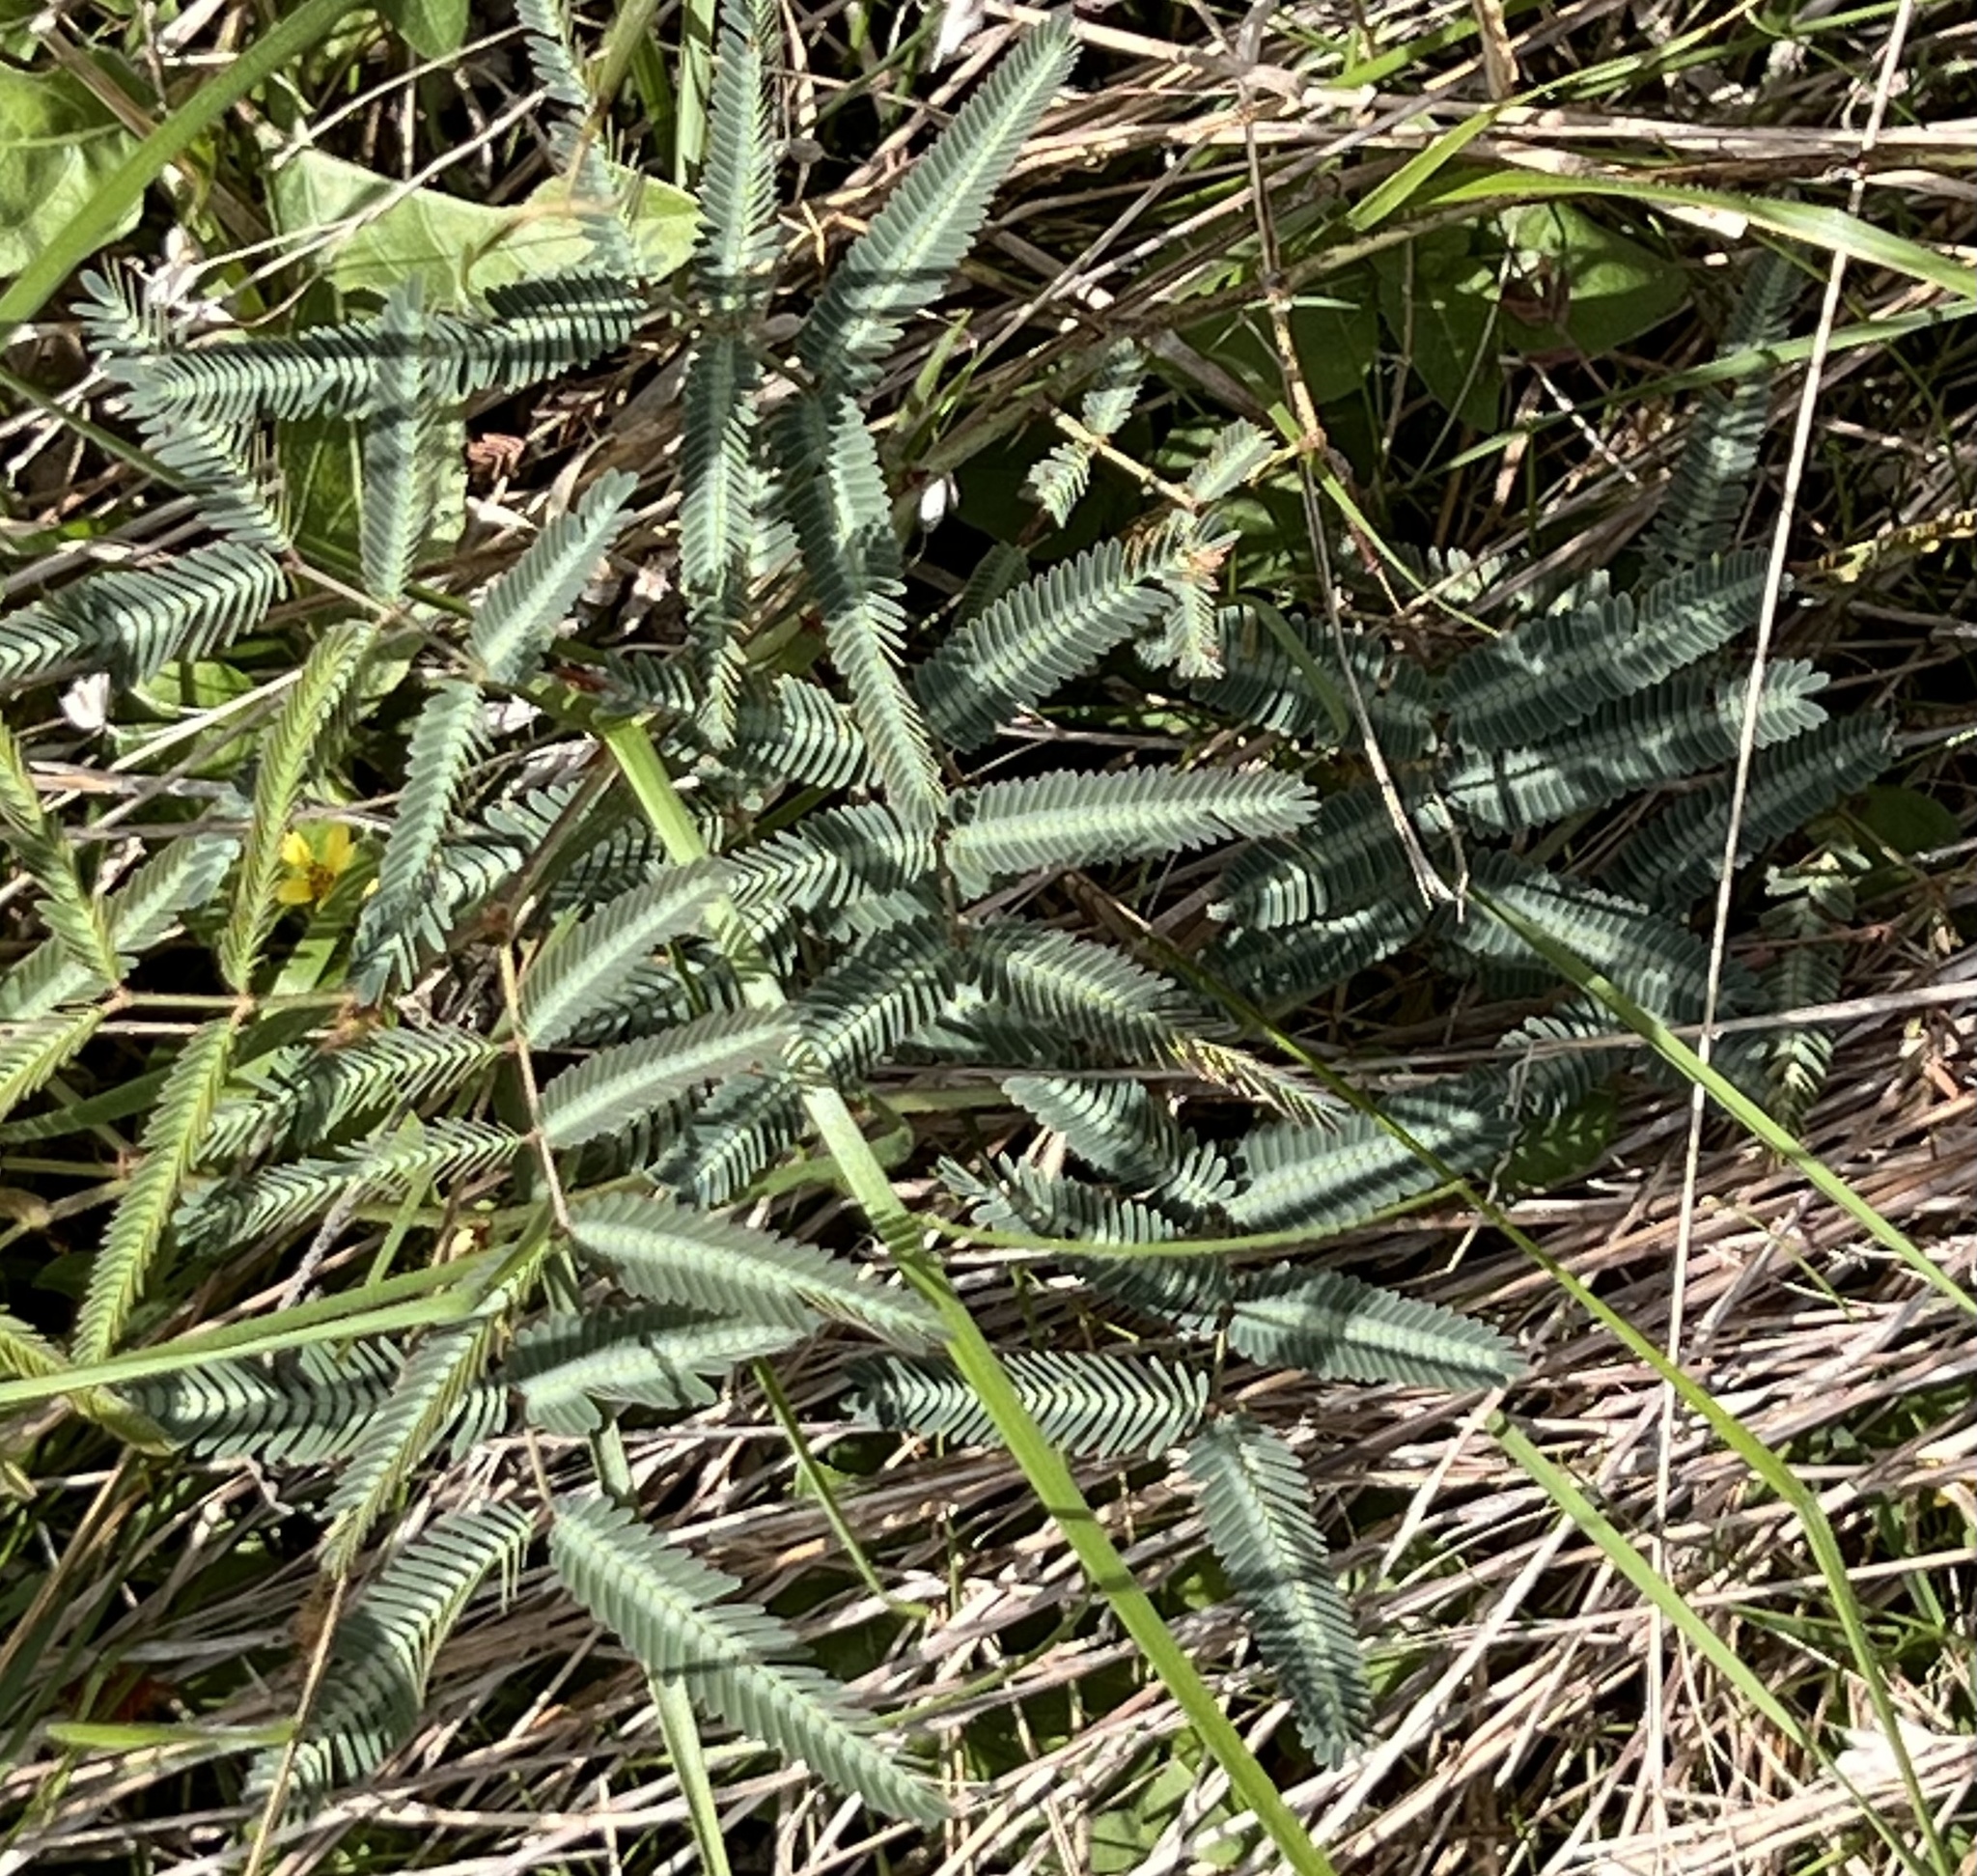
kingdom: Plantae
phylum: Tracheophyta
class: Magnoliopsida
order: Fabales
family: Fabaceae
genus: Neptunia
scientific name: Neptunia pubescens
